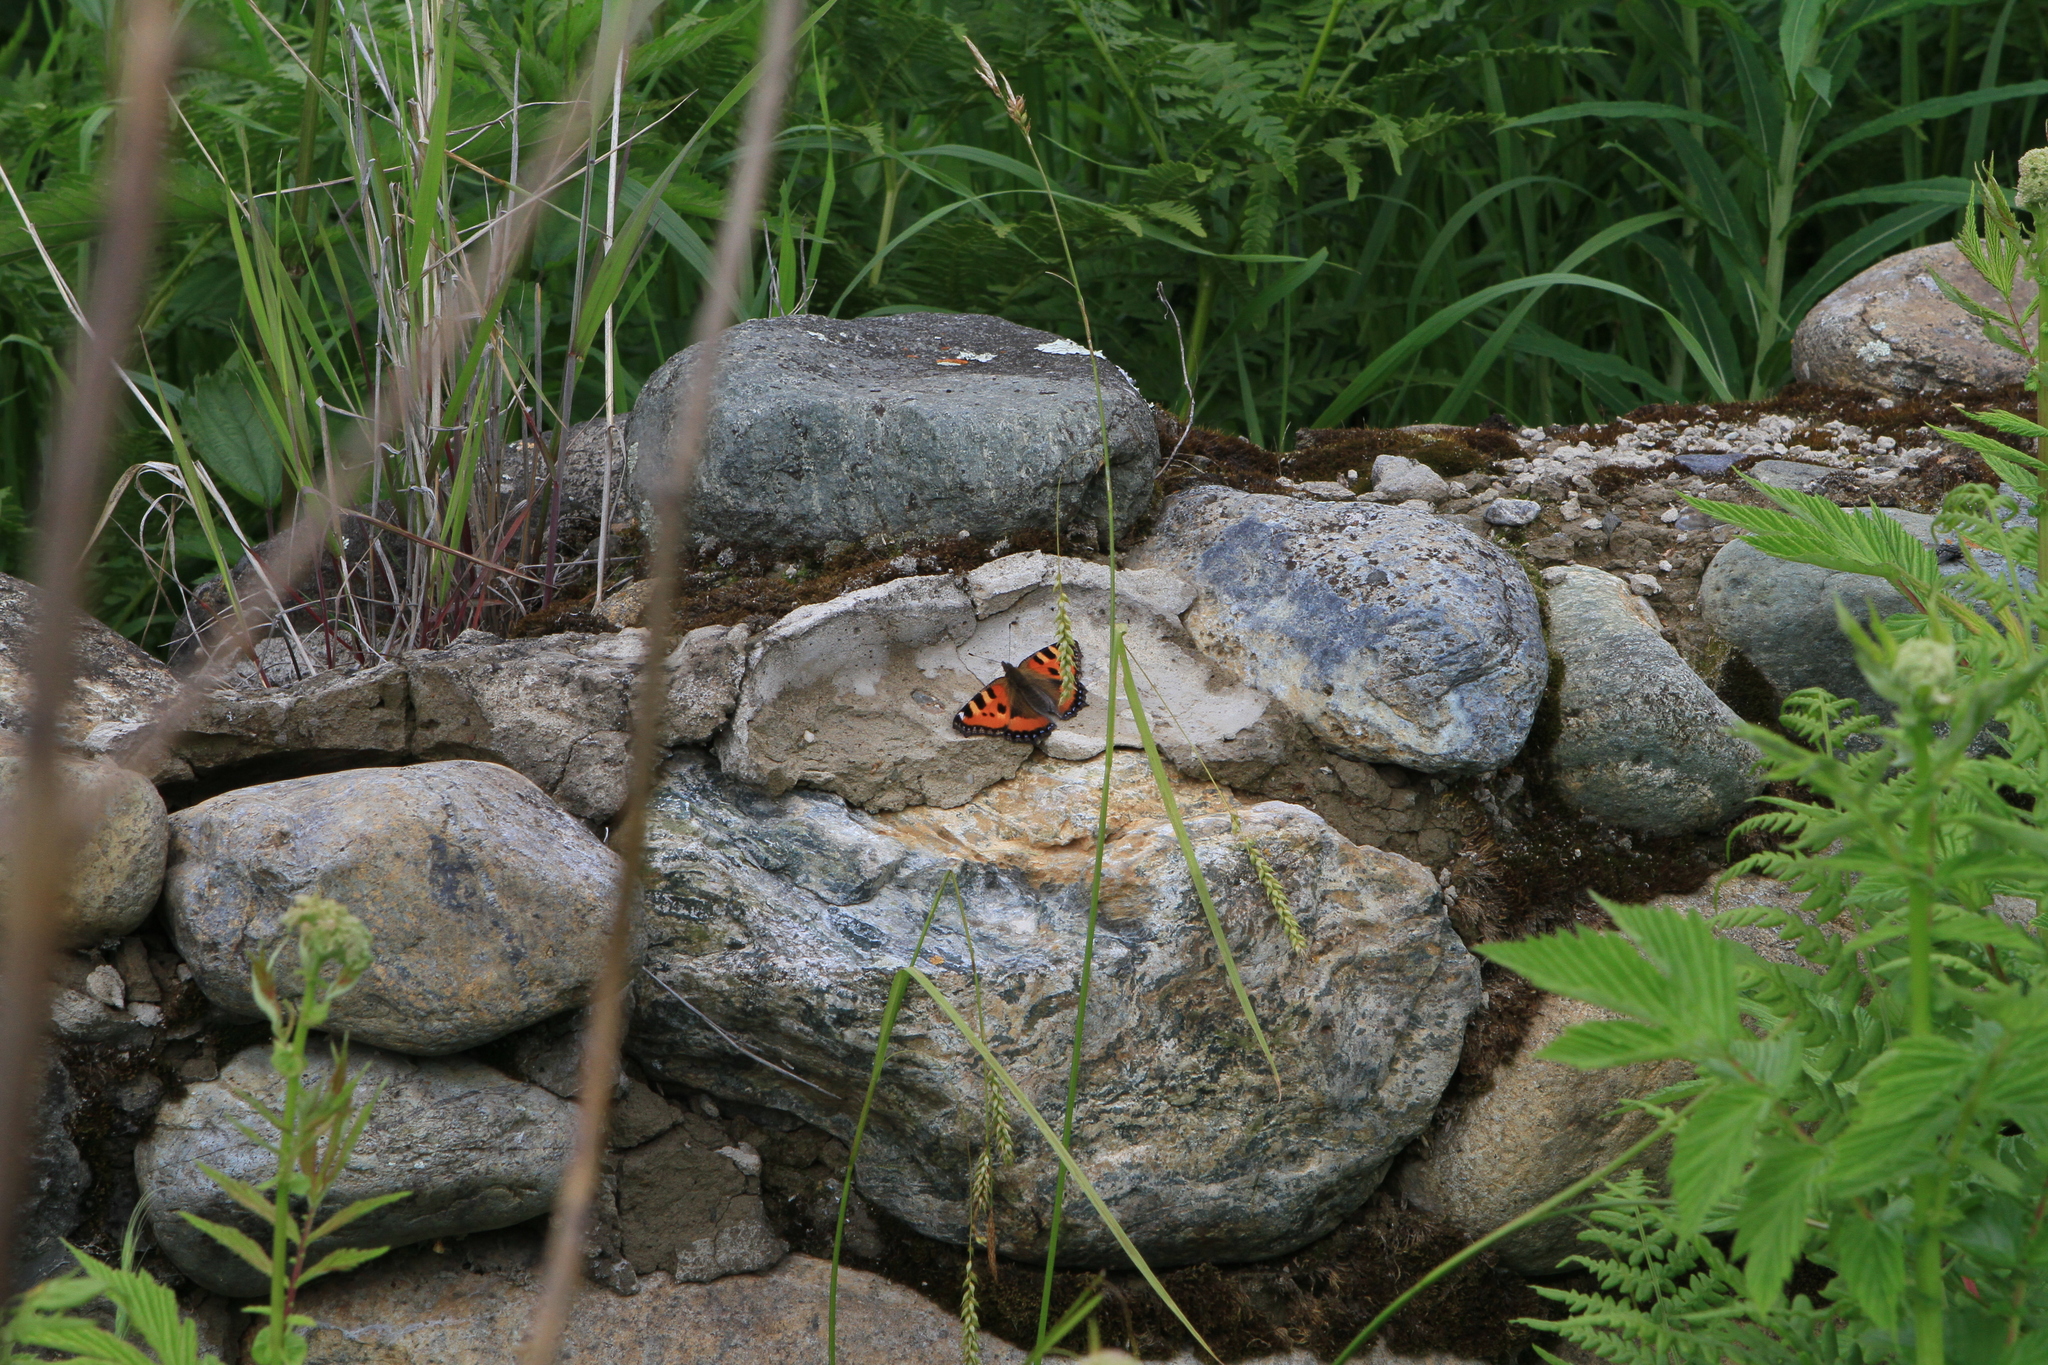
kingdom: Animalia
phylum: Arthropoda
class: Insecta
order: Lepidoptera
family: Nymphalidae
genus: Aglais
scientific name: Aglais urticae
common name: Small tortoiseshell
